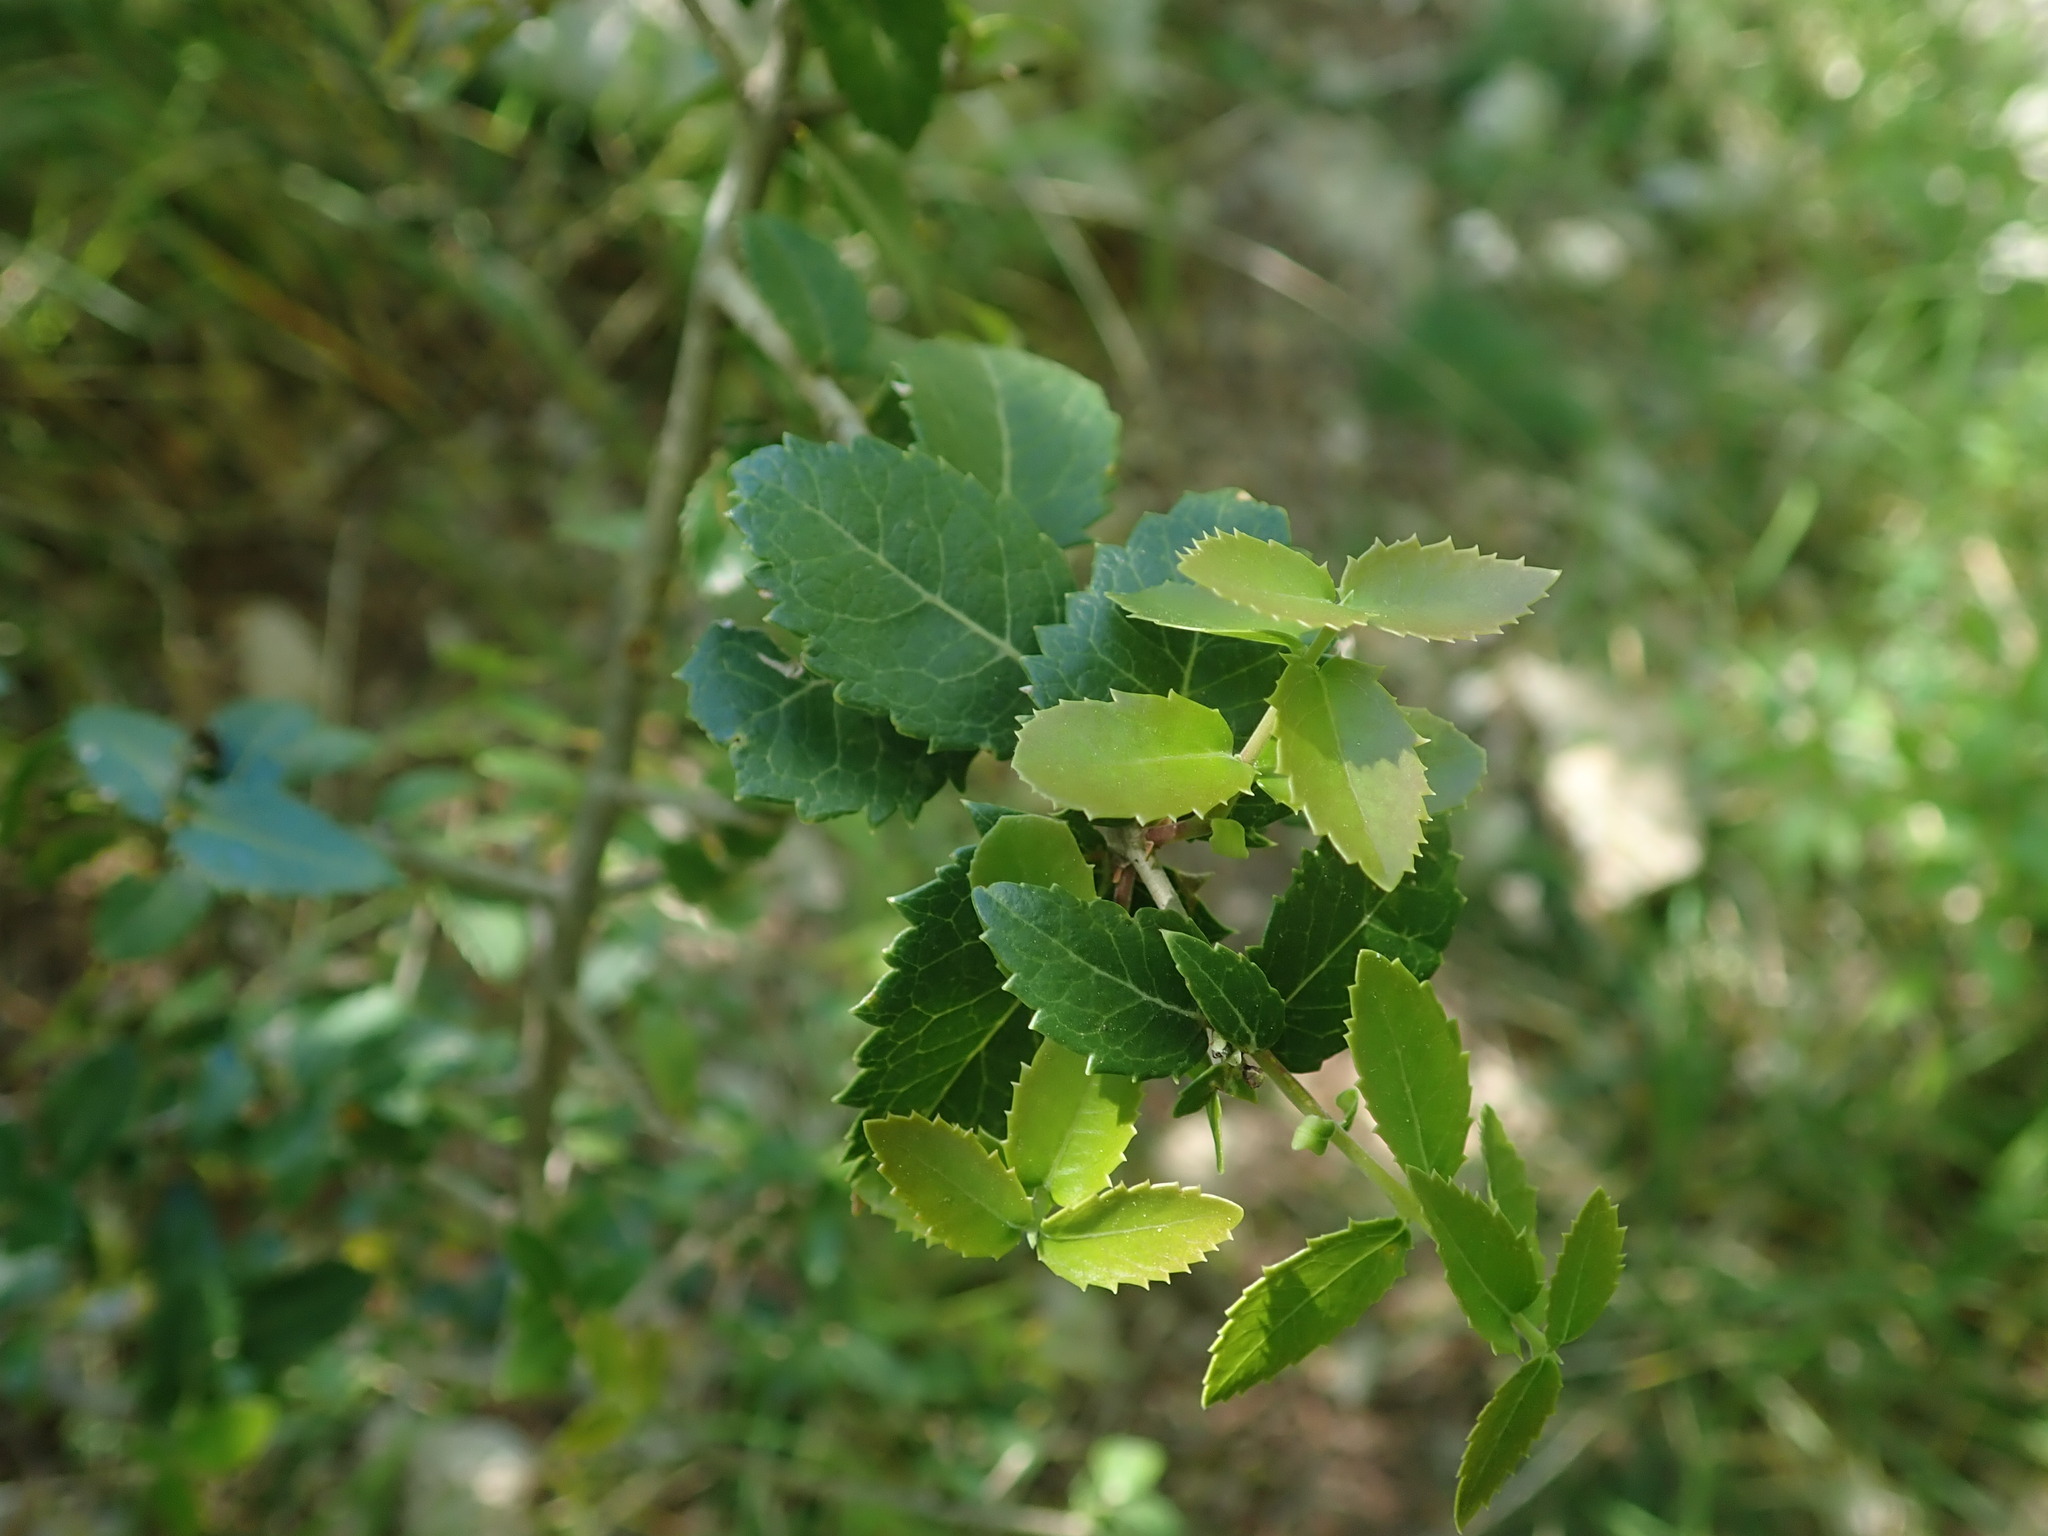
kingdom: Plantae
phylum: Tracheophyta
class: Magnoliopsida
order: Lamiales
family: Oleaceae
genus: Phillyrea
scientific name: Phillyrea latifolia
